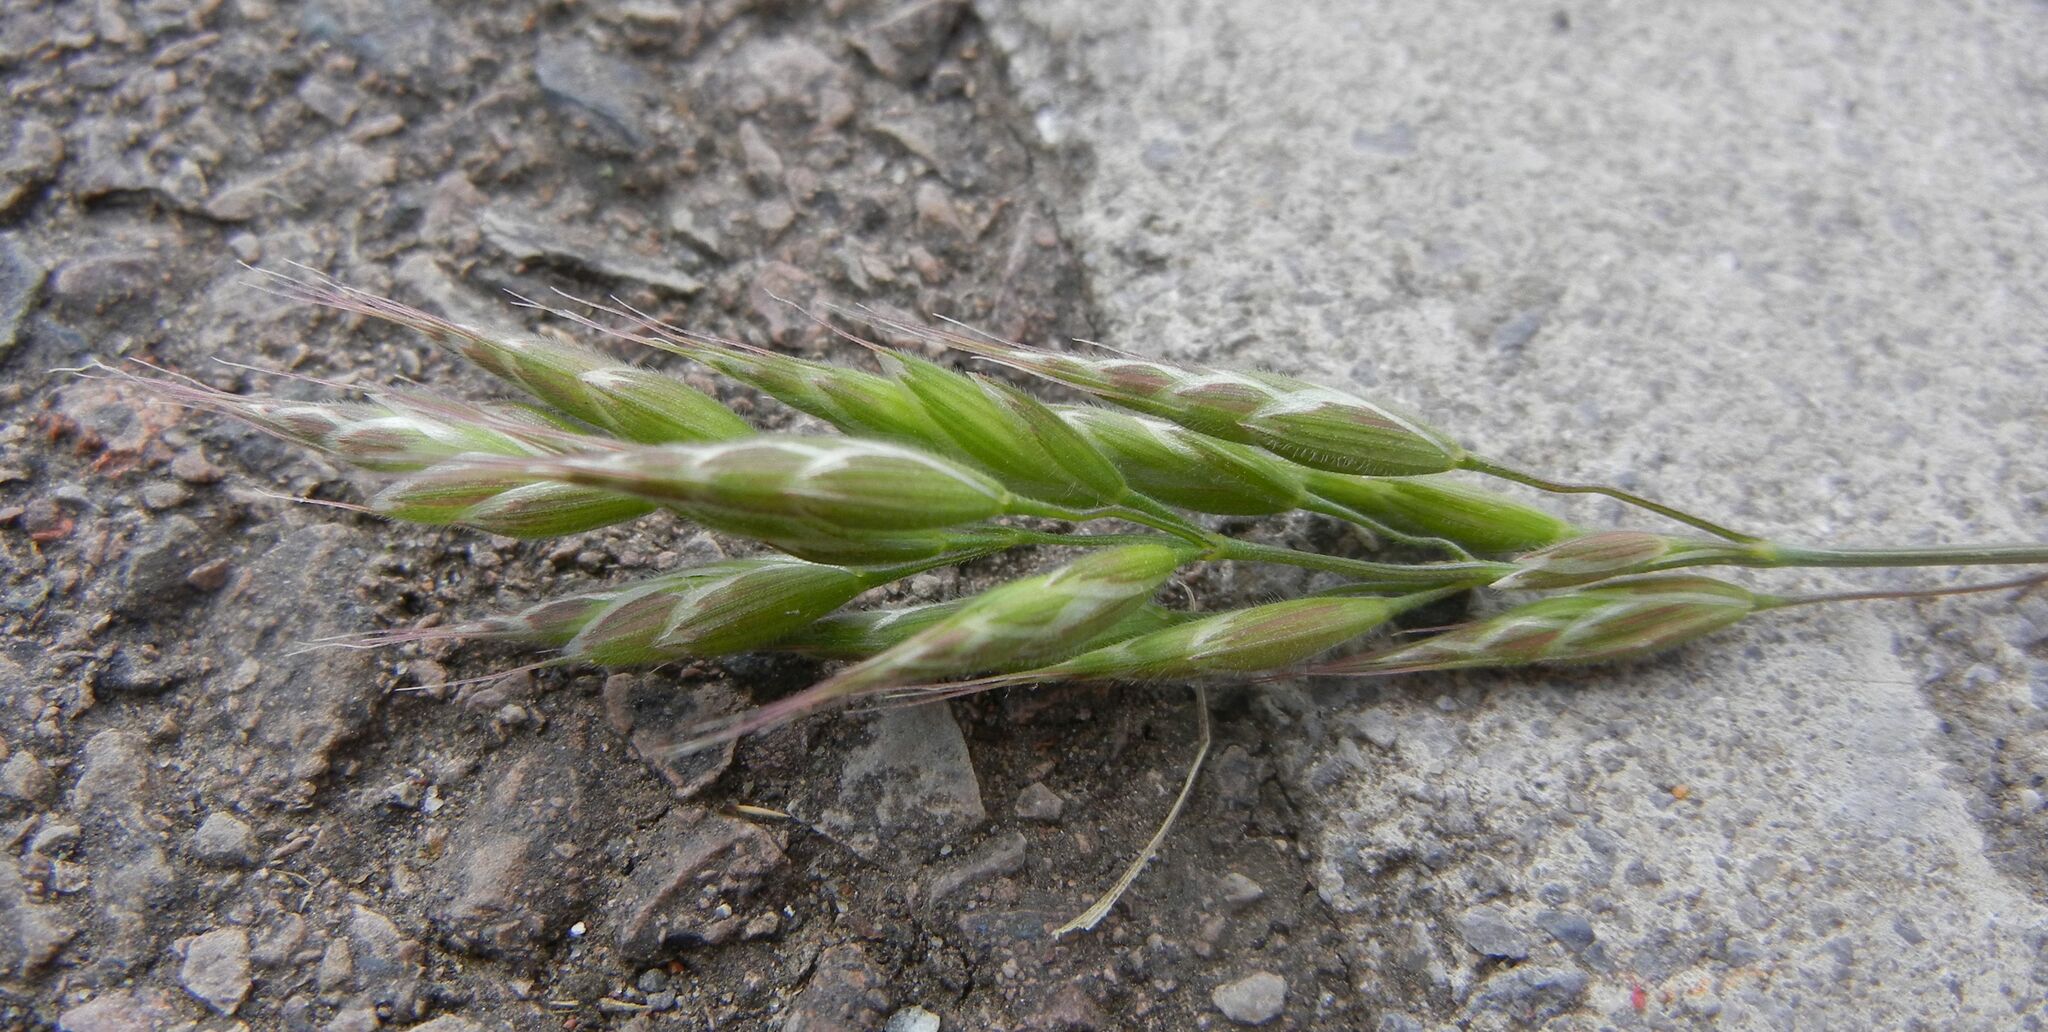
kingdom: Plantae
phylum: Tracheophyta
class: Liliopsida
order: Poales
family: Poaceae
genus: Bromus
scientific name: Bromus hordeaceus
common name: Soft brome
